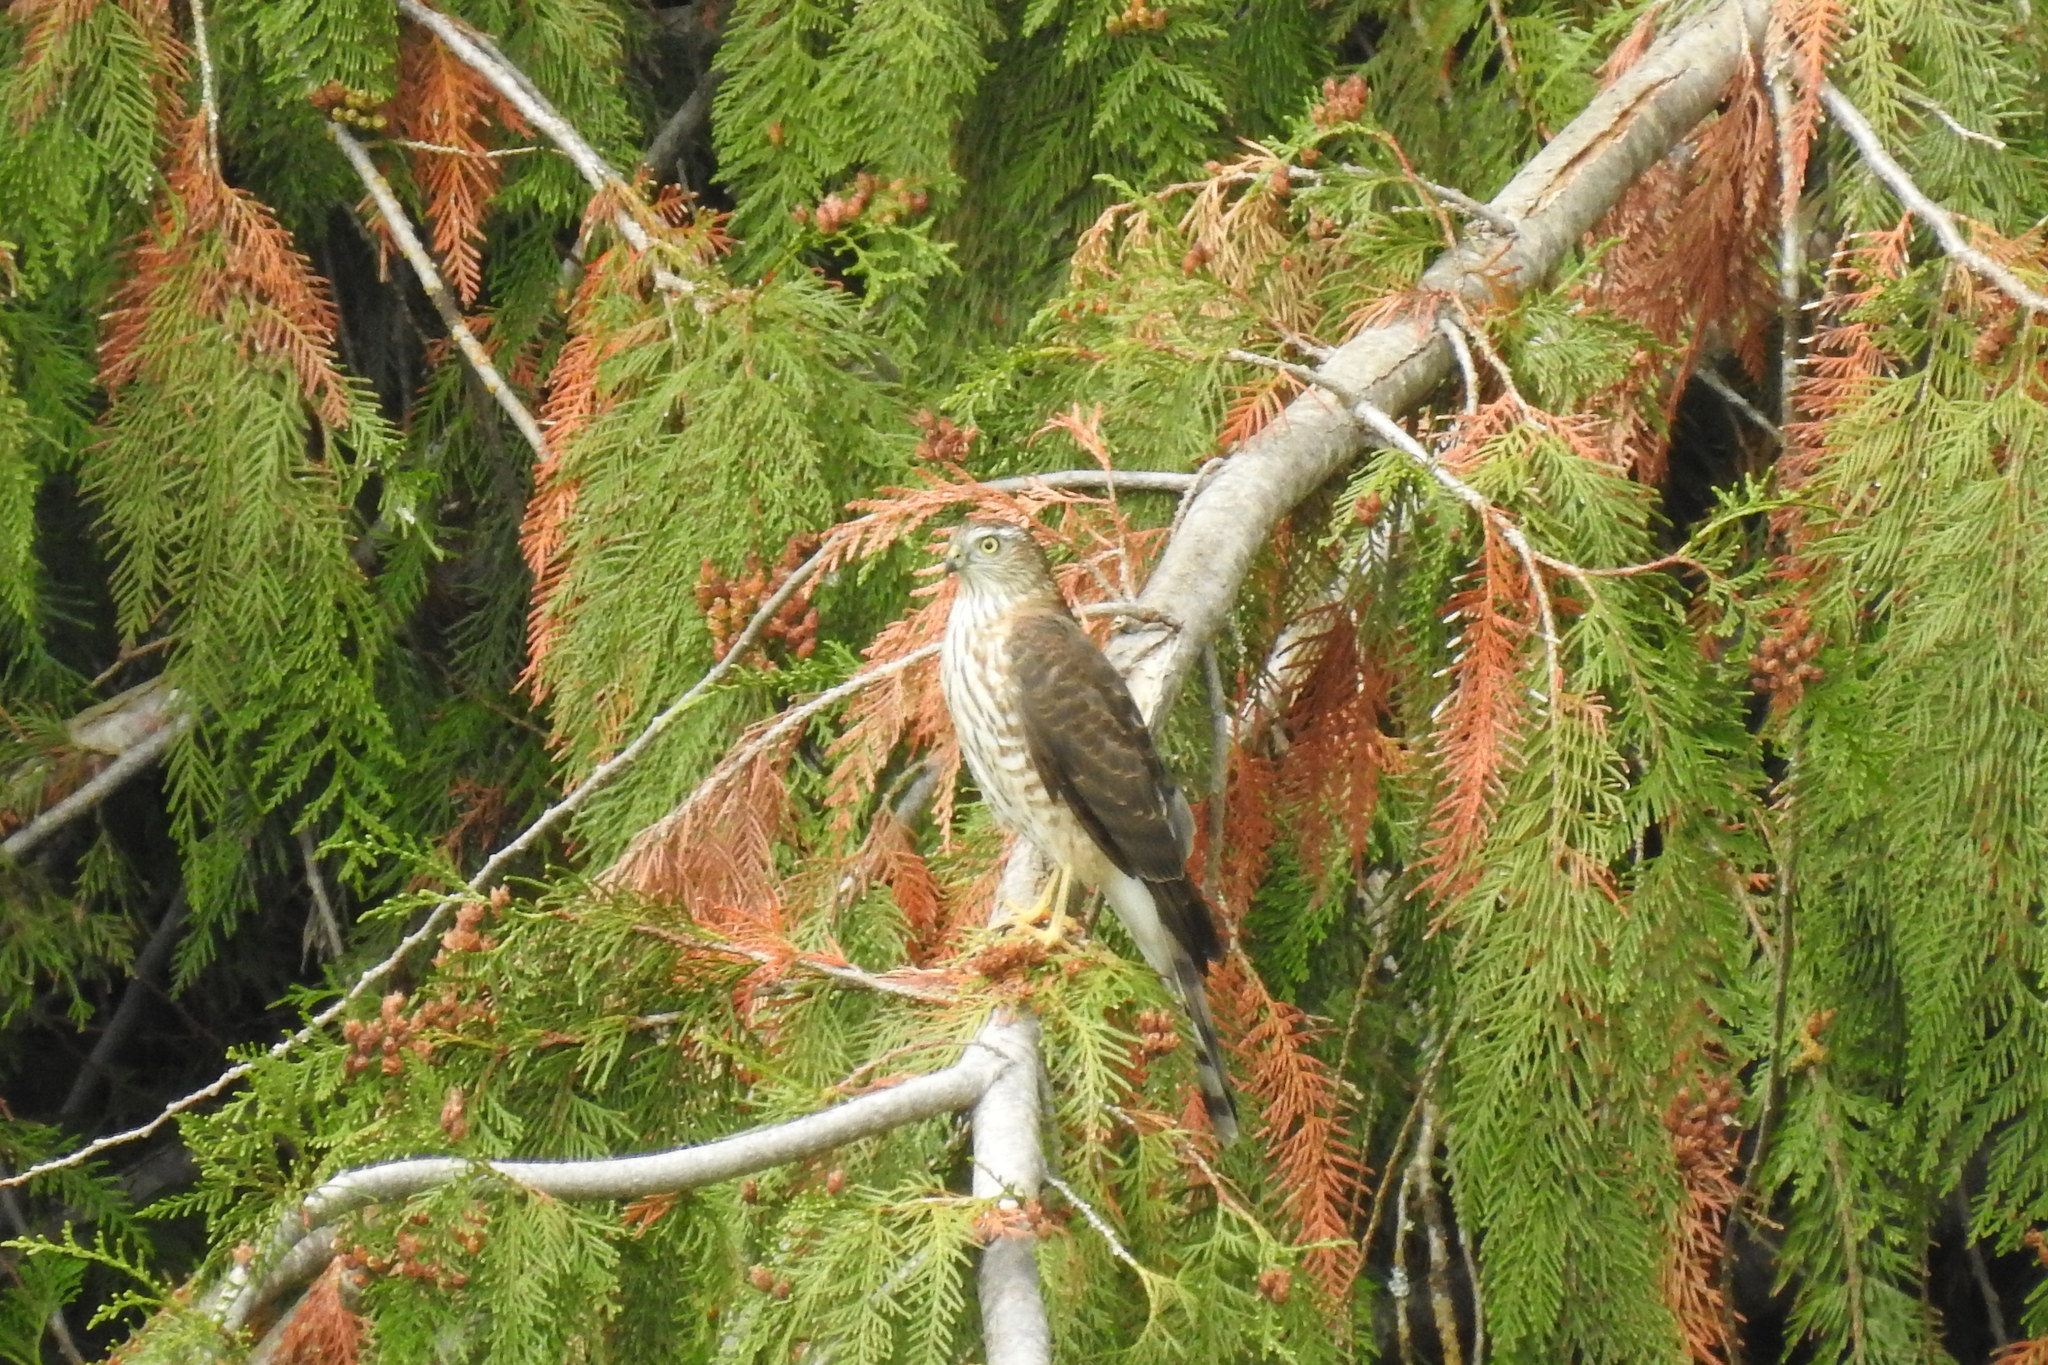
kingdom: Animalia
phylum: Chordata
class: Aves
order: Accipitriformes
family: Accipitridae
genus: Accipiter
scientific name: Accipiter striatus
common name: Sharp-shinned hawk
